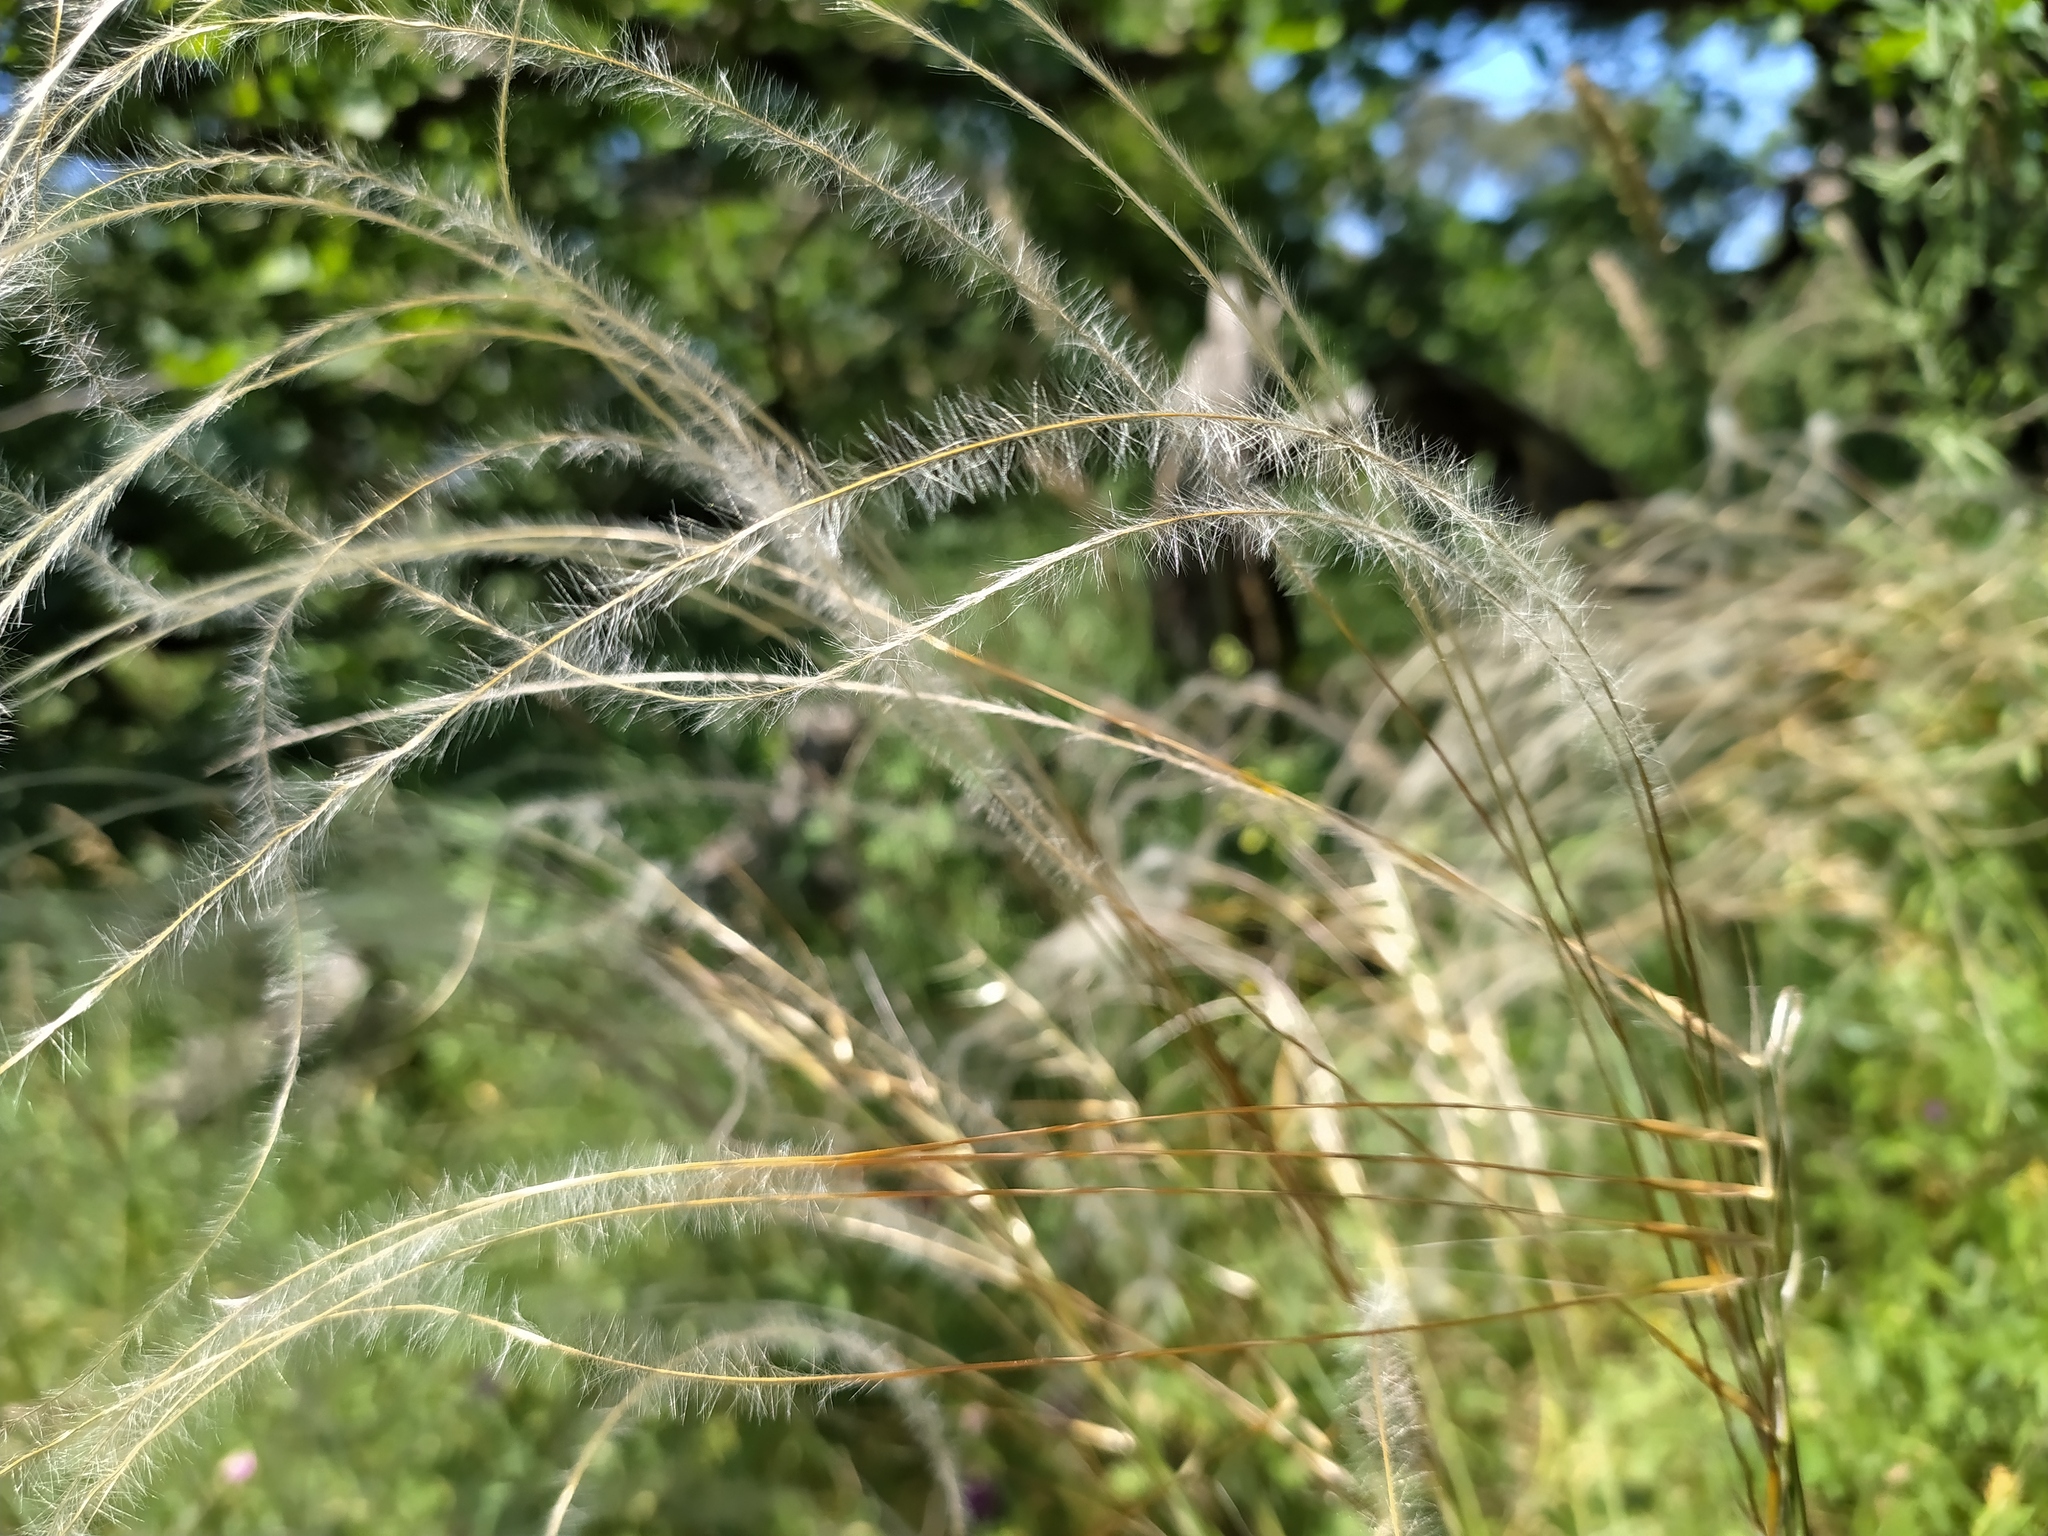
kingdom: Plantae
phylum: Tracheophyta
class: Liliopsida
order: Poales
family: Poaceae
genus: Stipa
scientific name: Stipa pennata
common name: European feather grass
